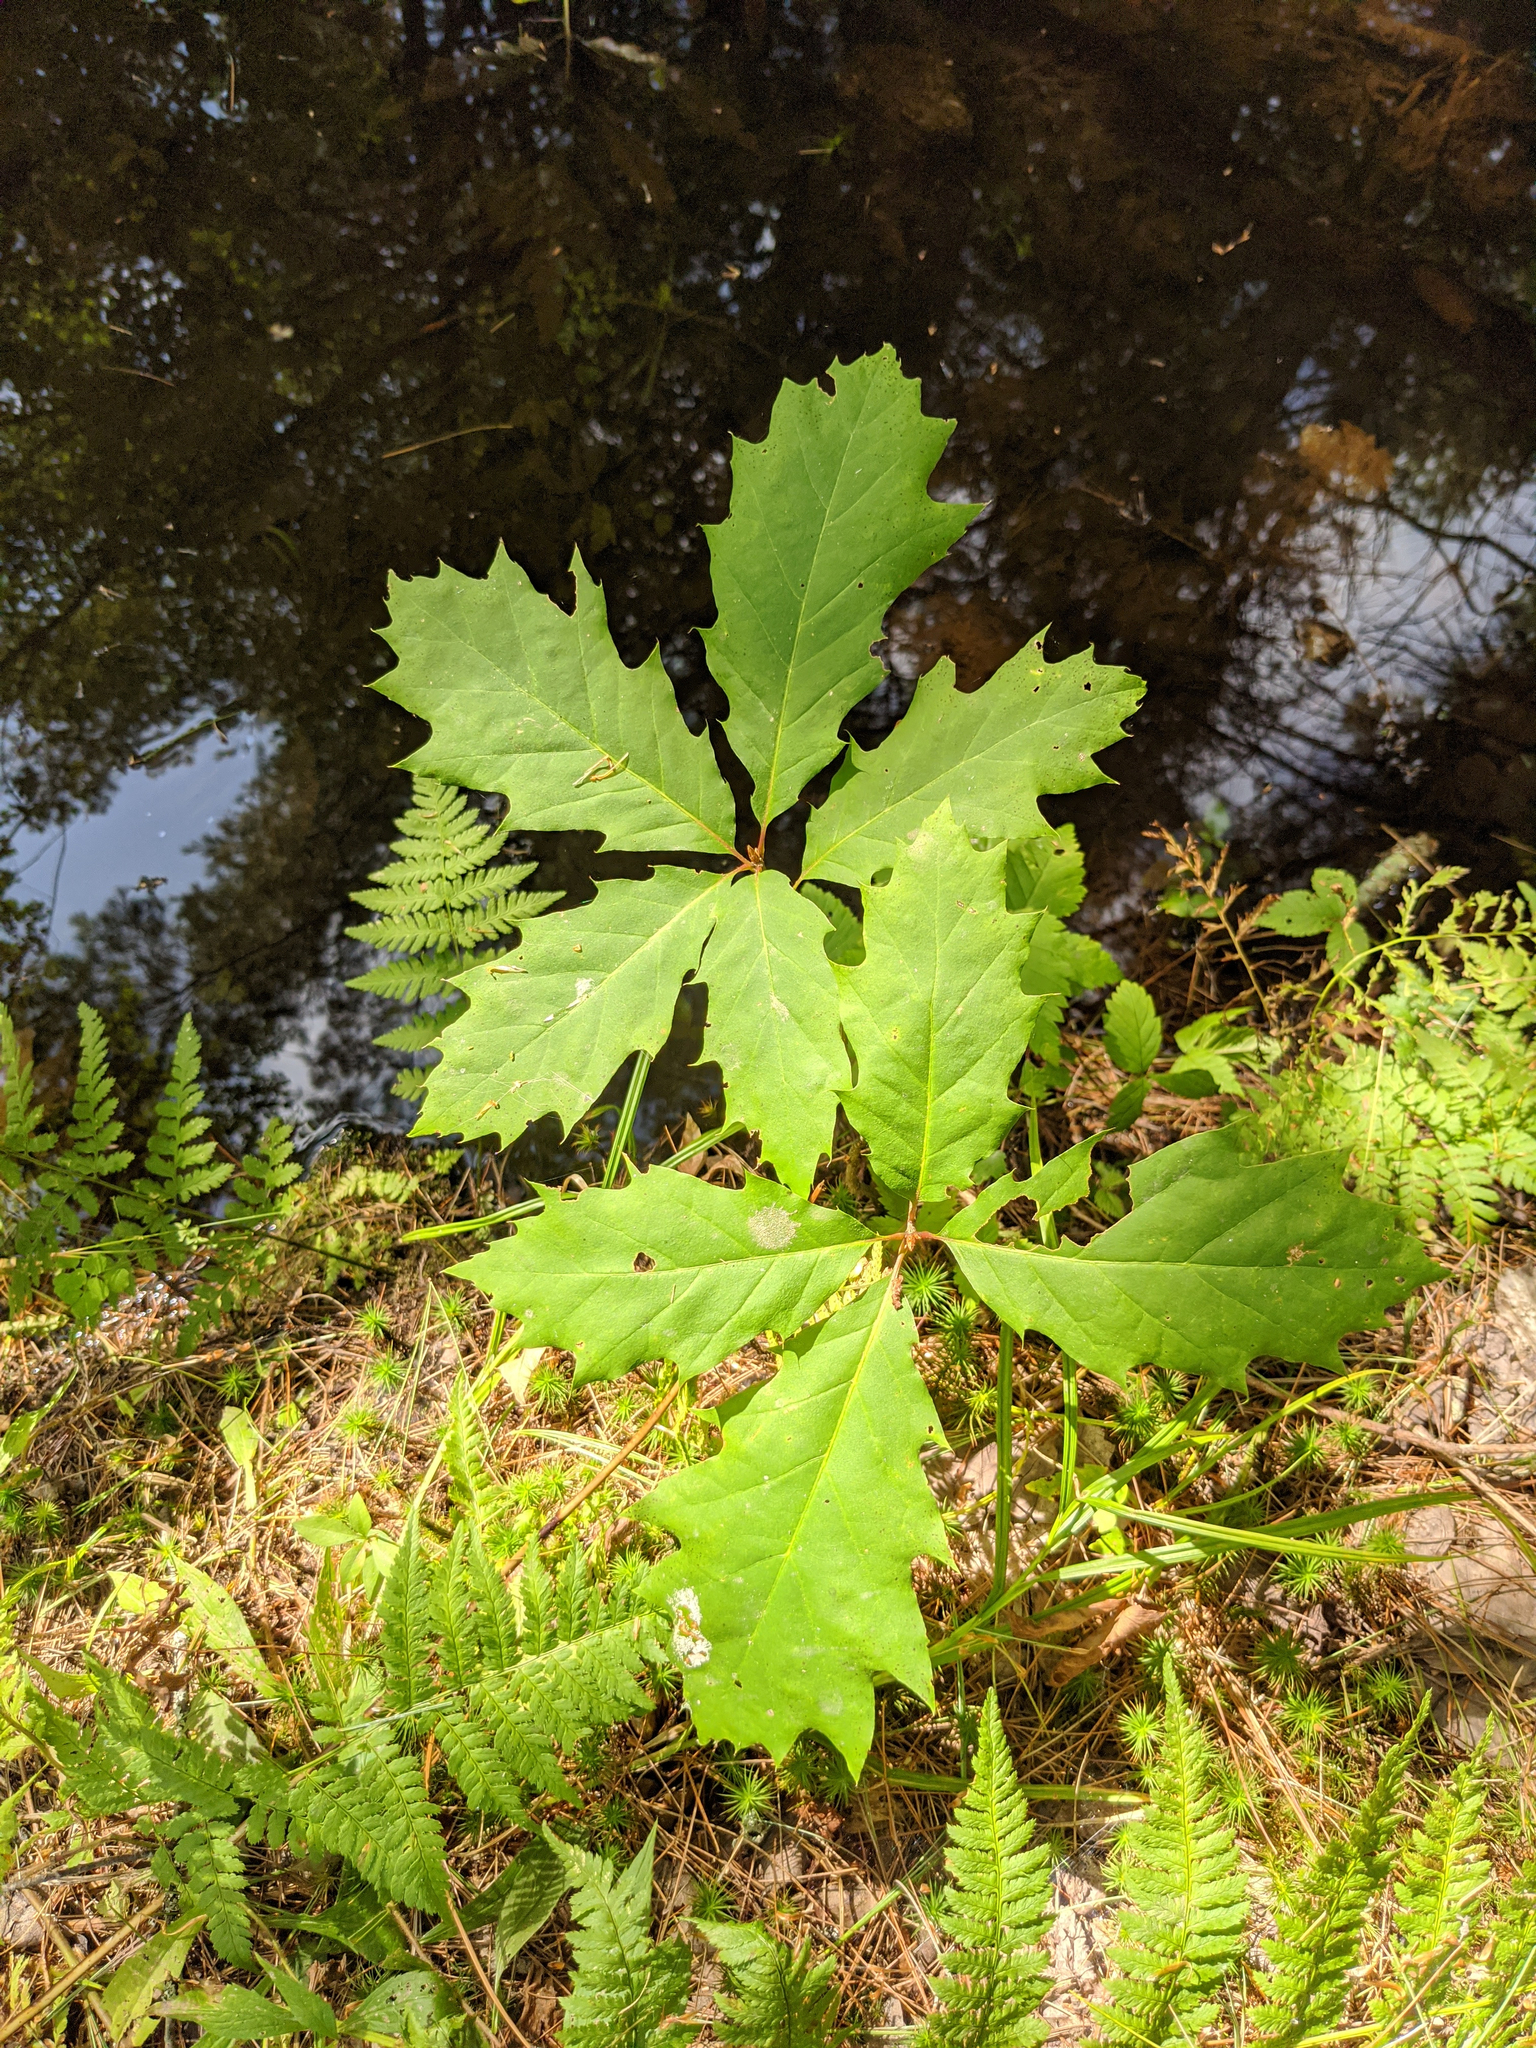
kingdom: Plantae
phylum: Tracheophyta
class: Magnoliopsida
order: Fagales
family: Fagaceae
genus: Quercus
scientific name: Quercus rubra
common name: Red oak
